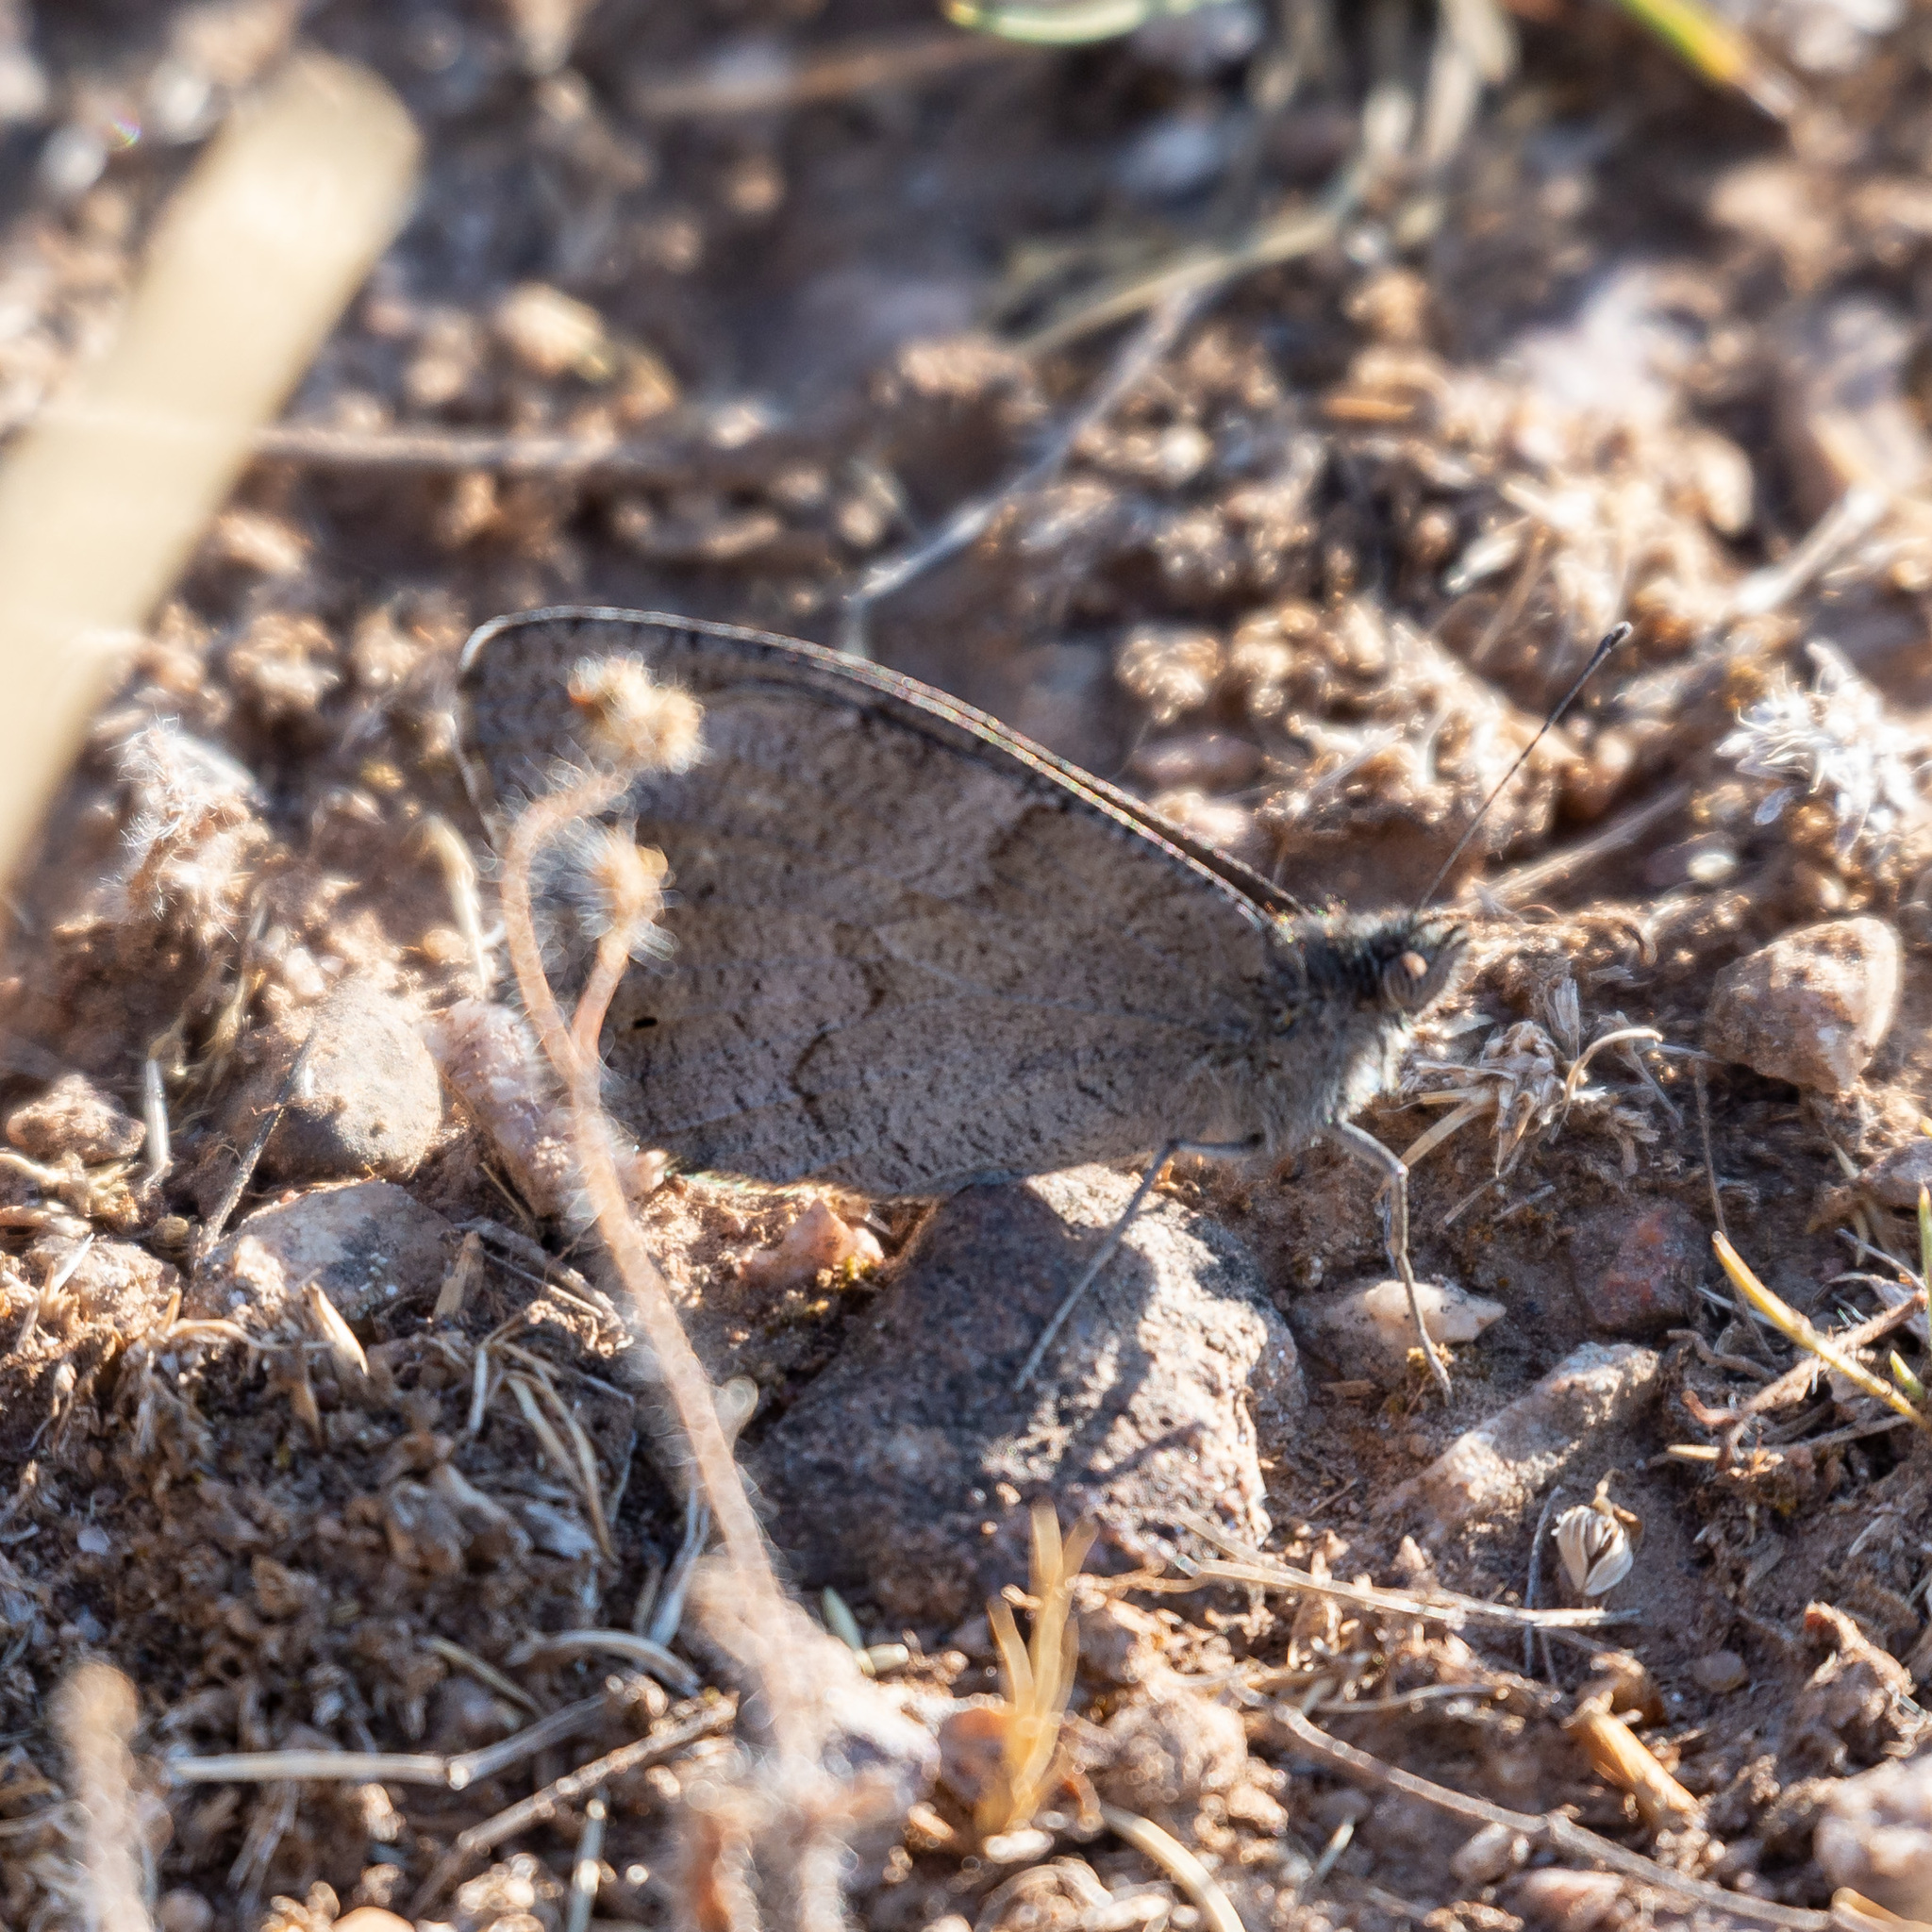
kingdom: Animalia
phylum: Arthropoda
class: Insecta
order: Lepidoptera
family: Nymphalidae
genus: Hipparchia
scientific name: Hipparchia statilinus
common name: Tree grayling
